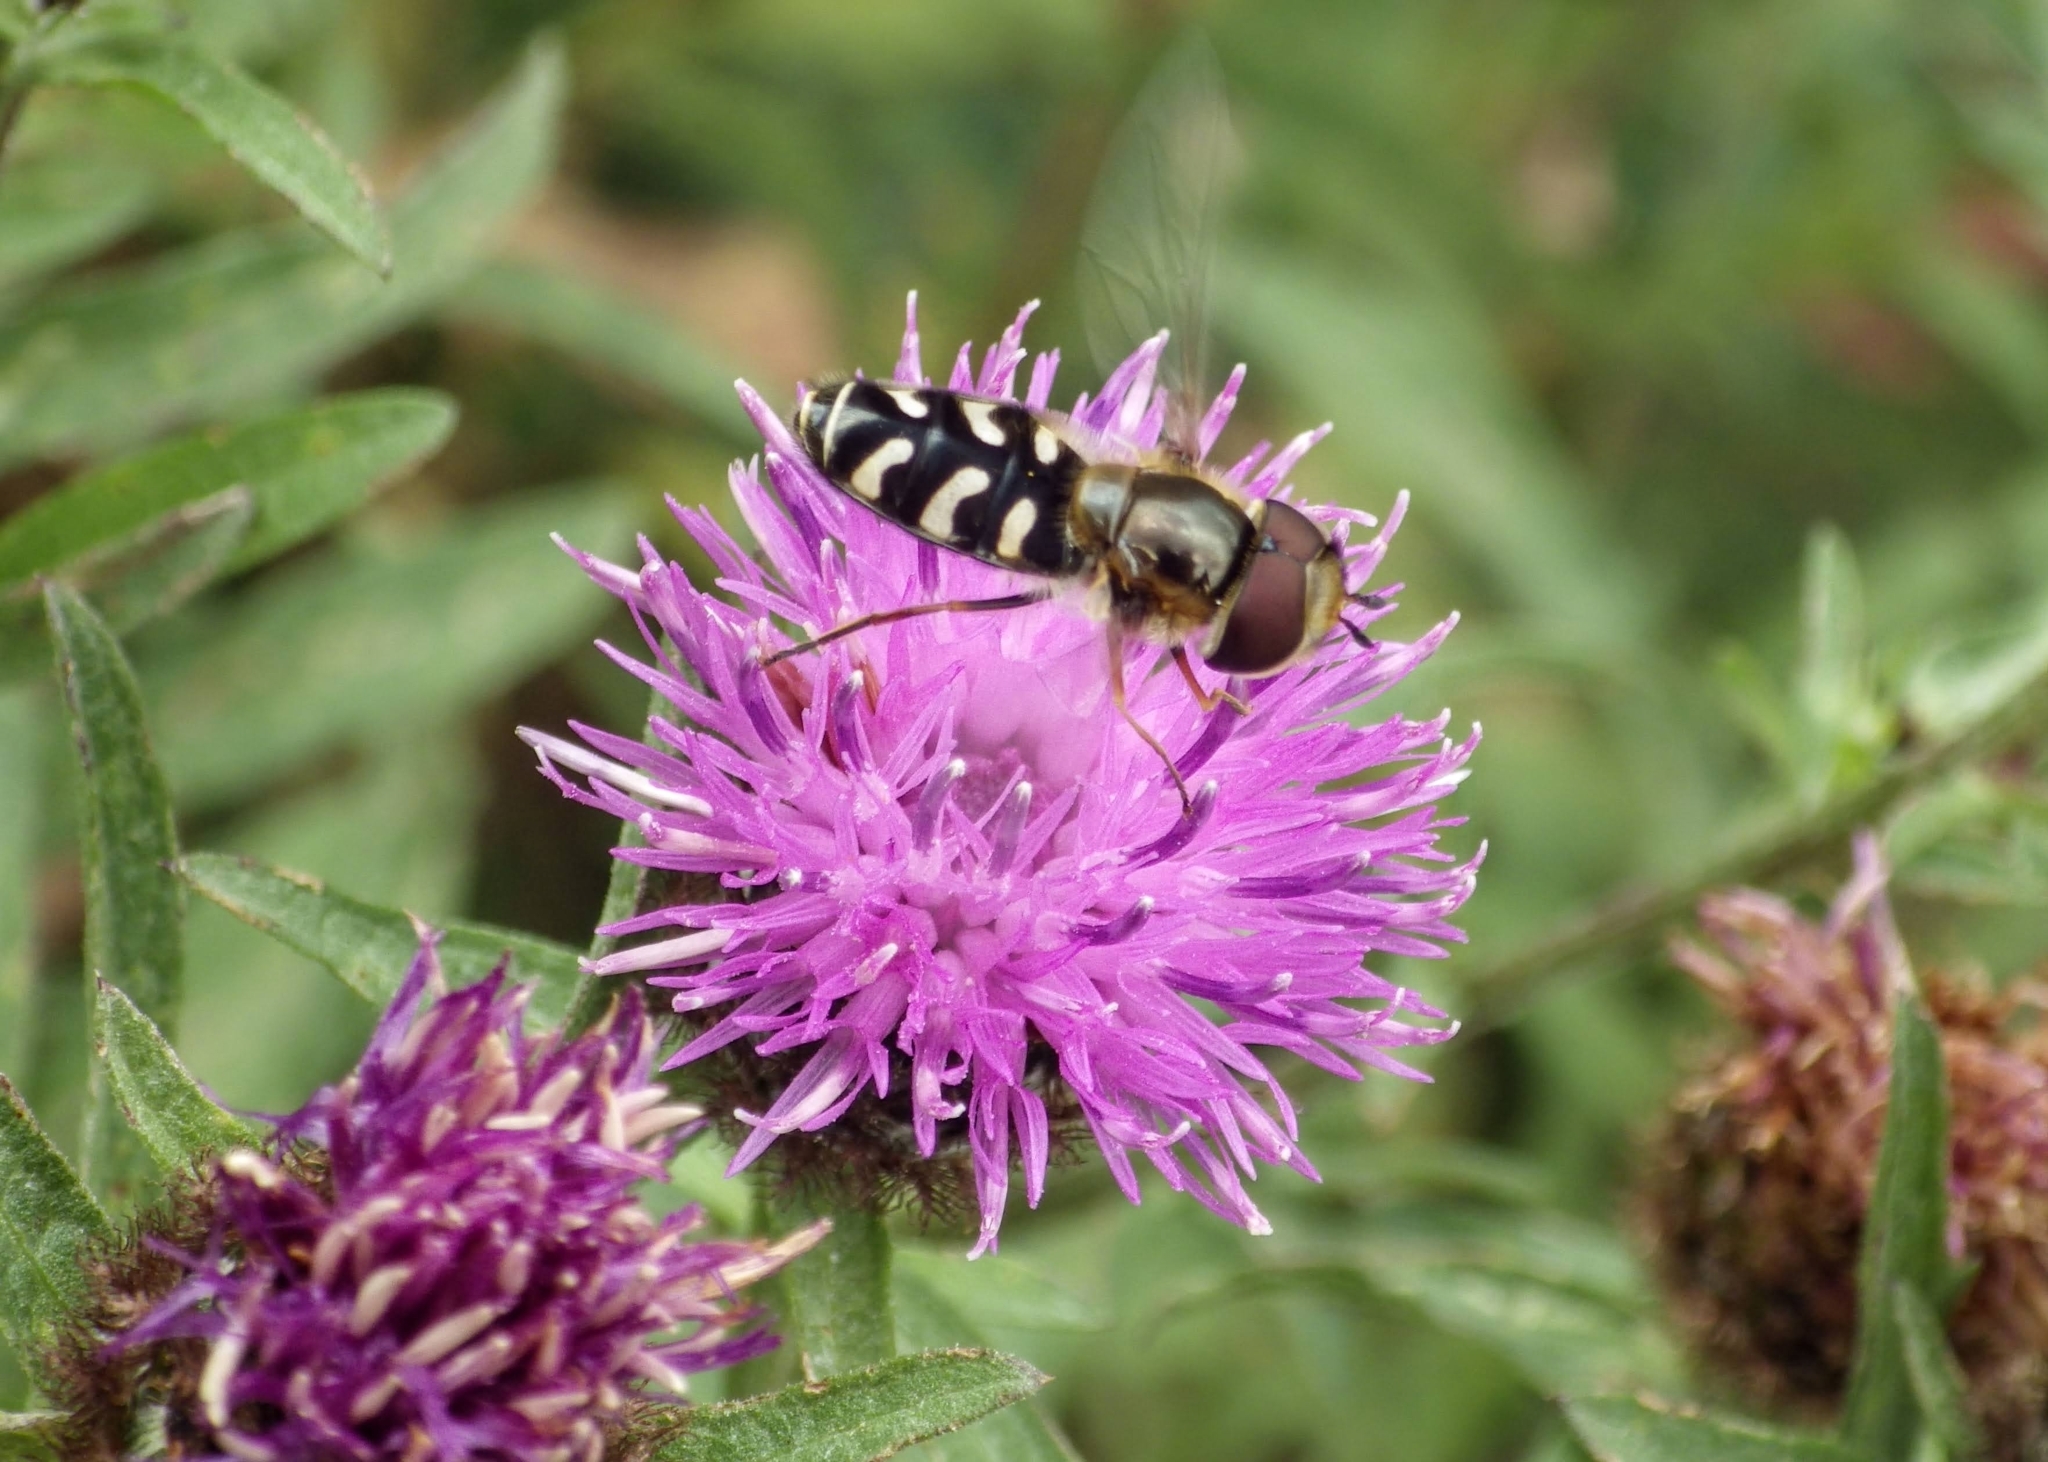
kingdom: Animalia
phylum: Arthropoda
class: Insecta
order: Diptera
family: Syrphidae
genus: Scaeva
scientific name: Scaeva pyrastri
